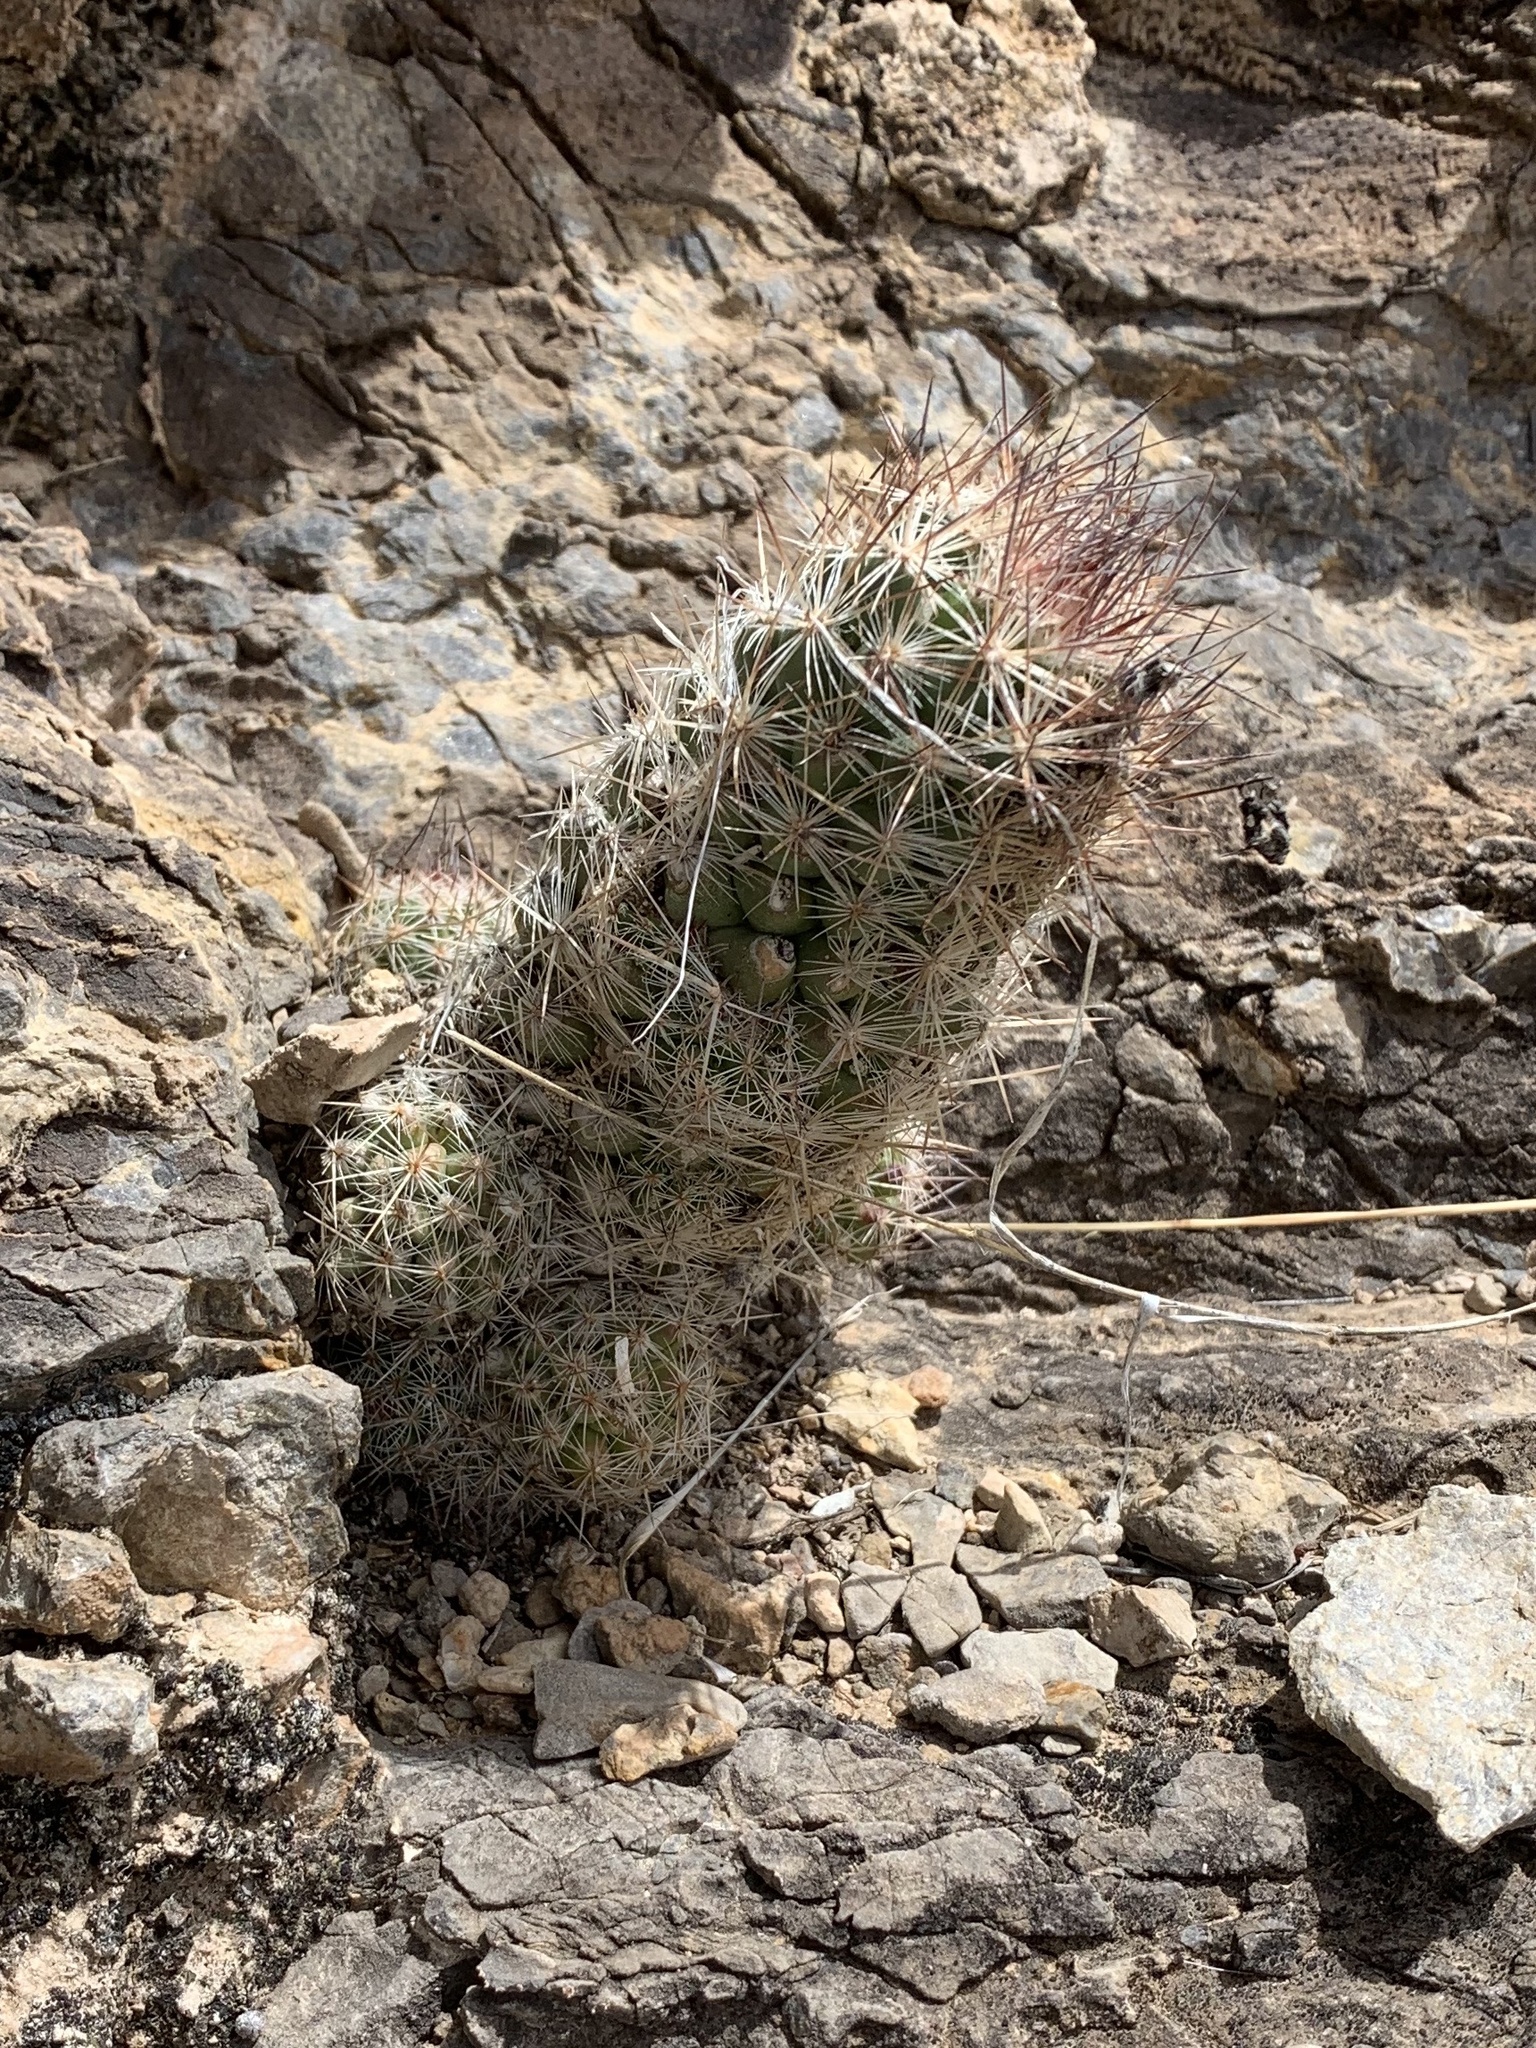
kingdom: Plantae
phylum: Tracheophyta
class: Magnoliopsida
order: Caryophyllales
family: Cactaceae
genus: Pelecyphora
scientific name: Pelecyphora tuberculosa
